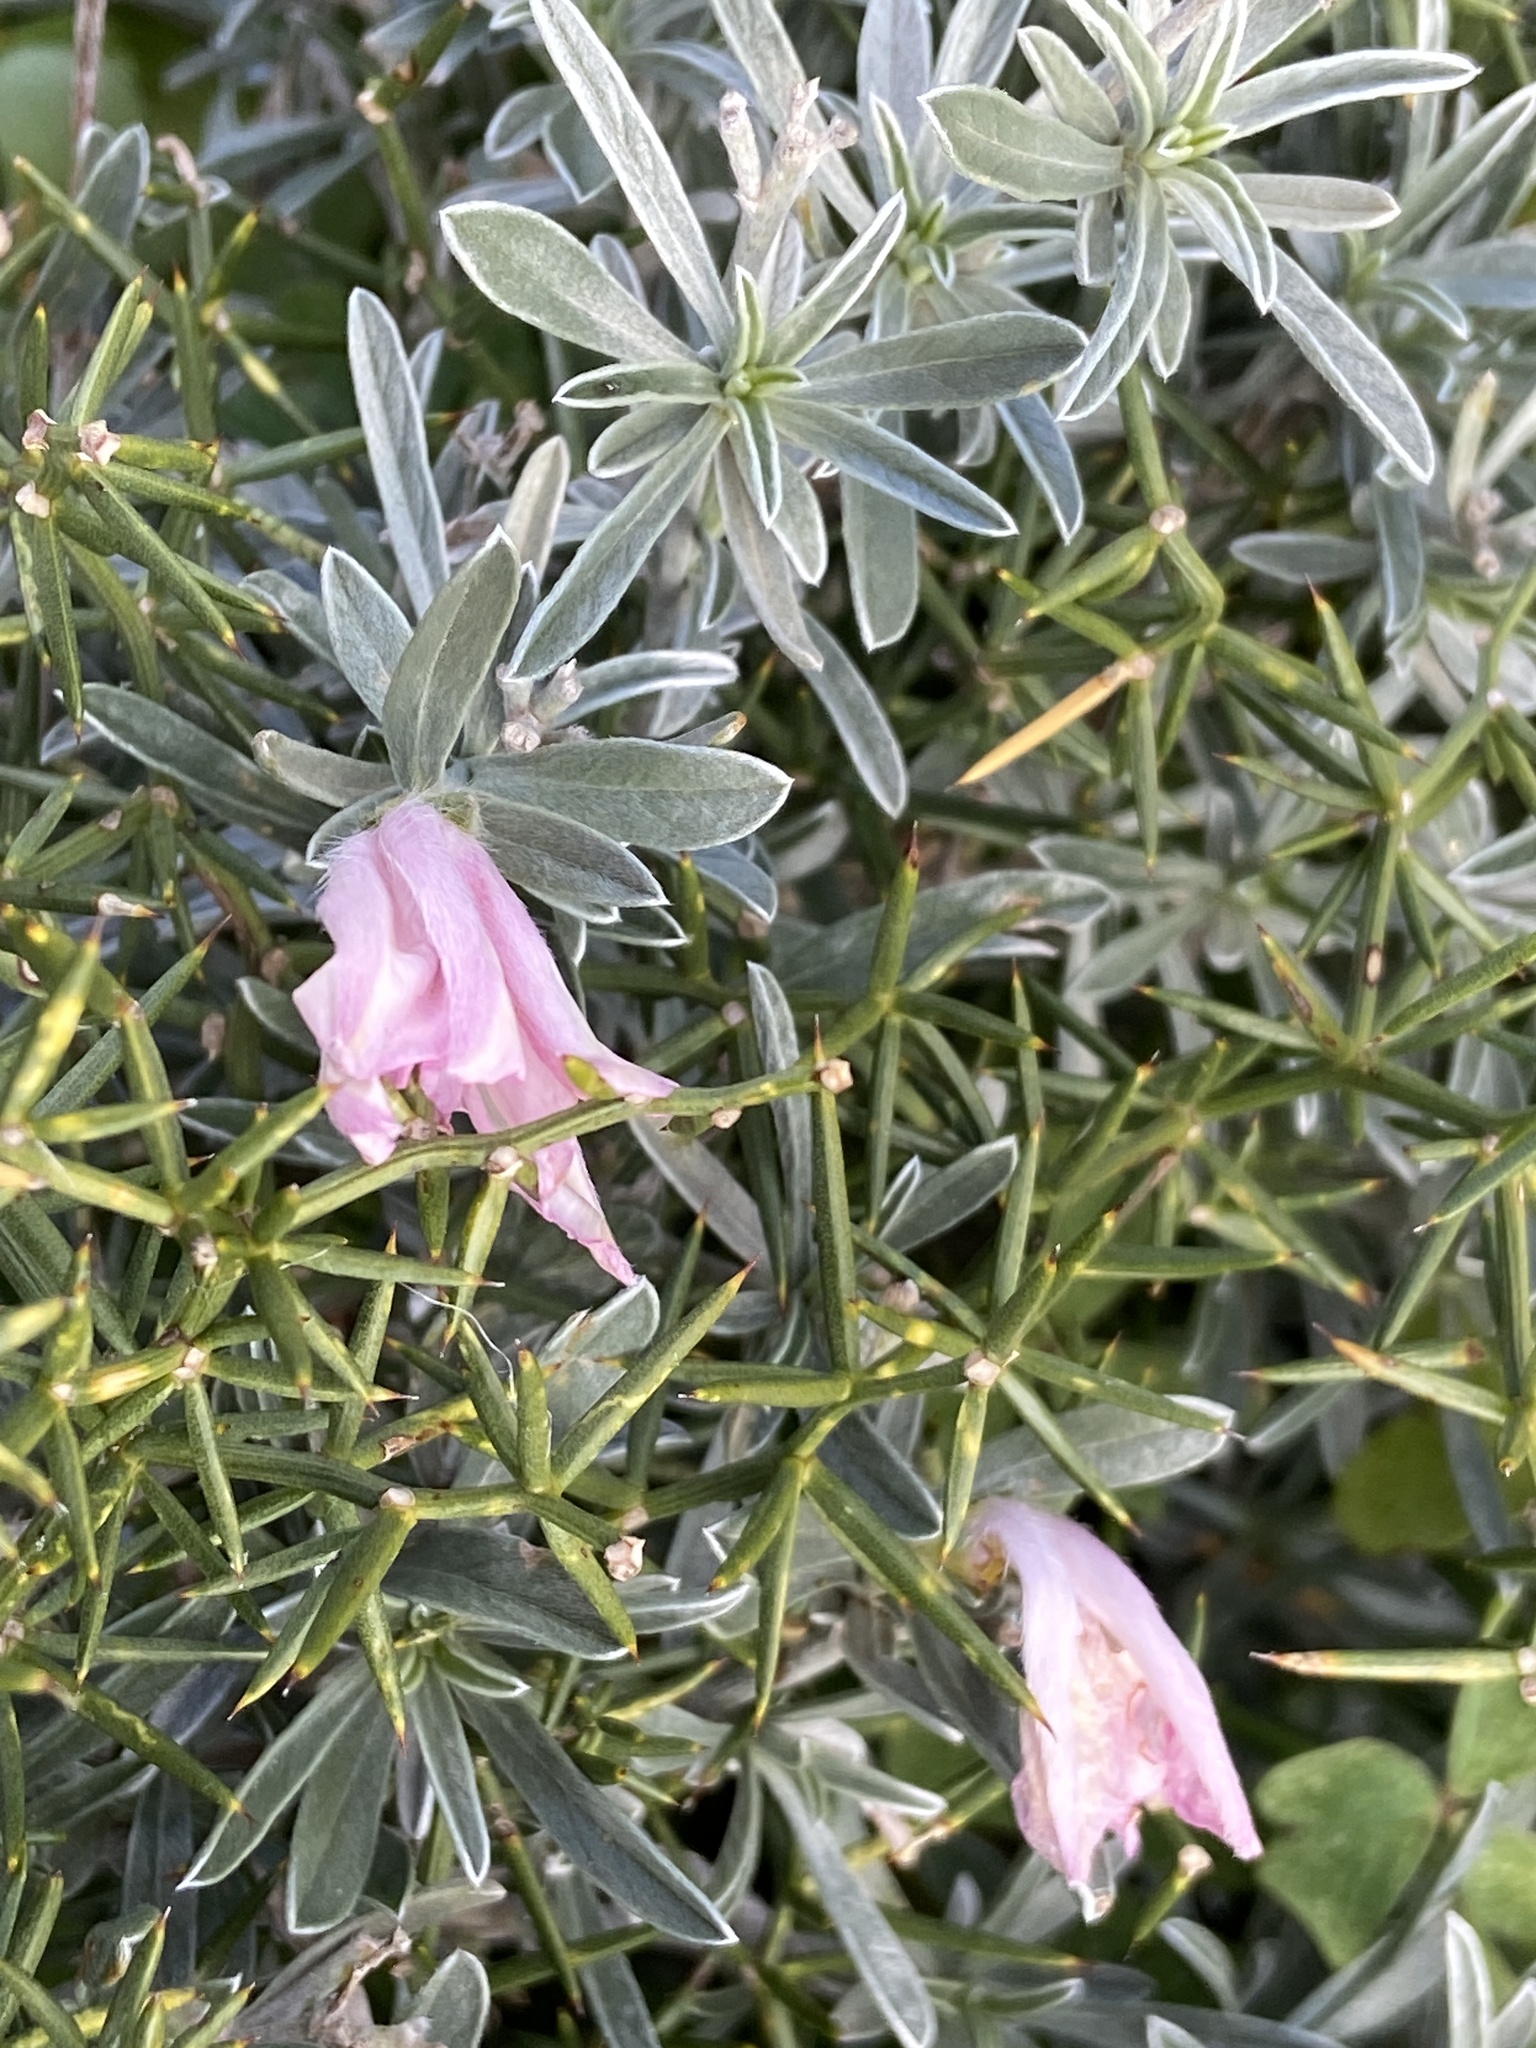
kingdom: Plantae
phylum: Tracheophyta
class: Magnoliopsida
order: Solanales
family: Convolvulaceae
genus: Convolvulus
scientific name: Convolvulus oleifolius
